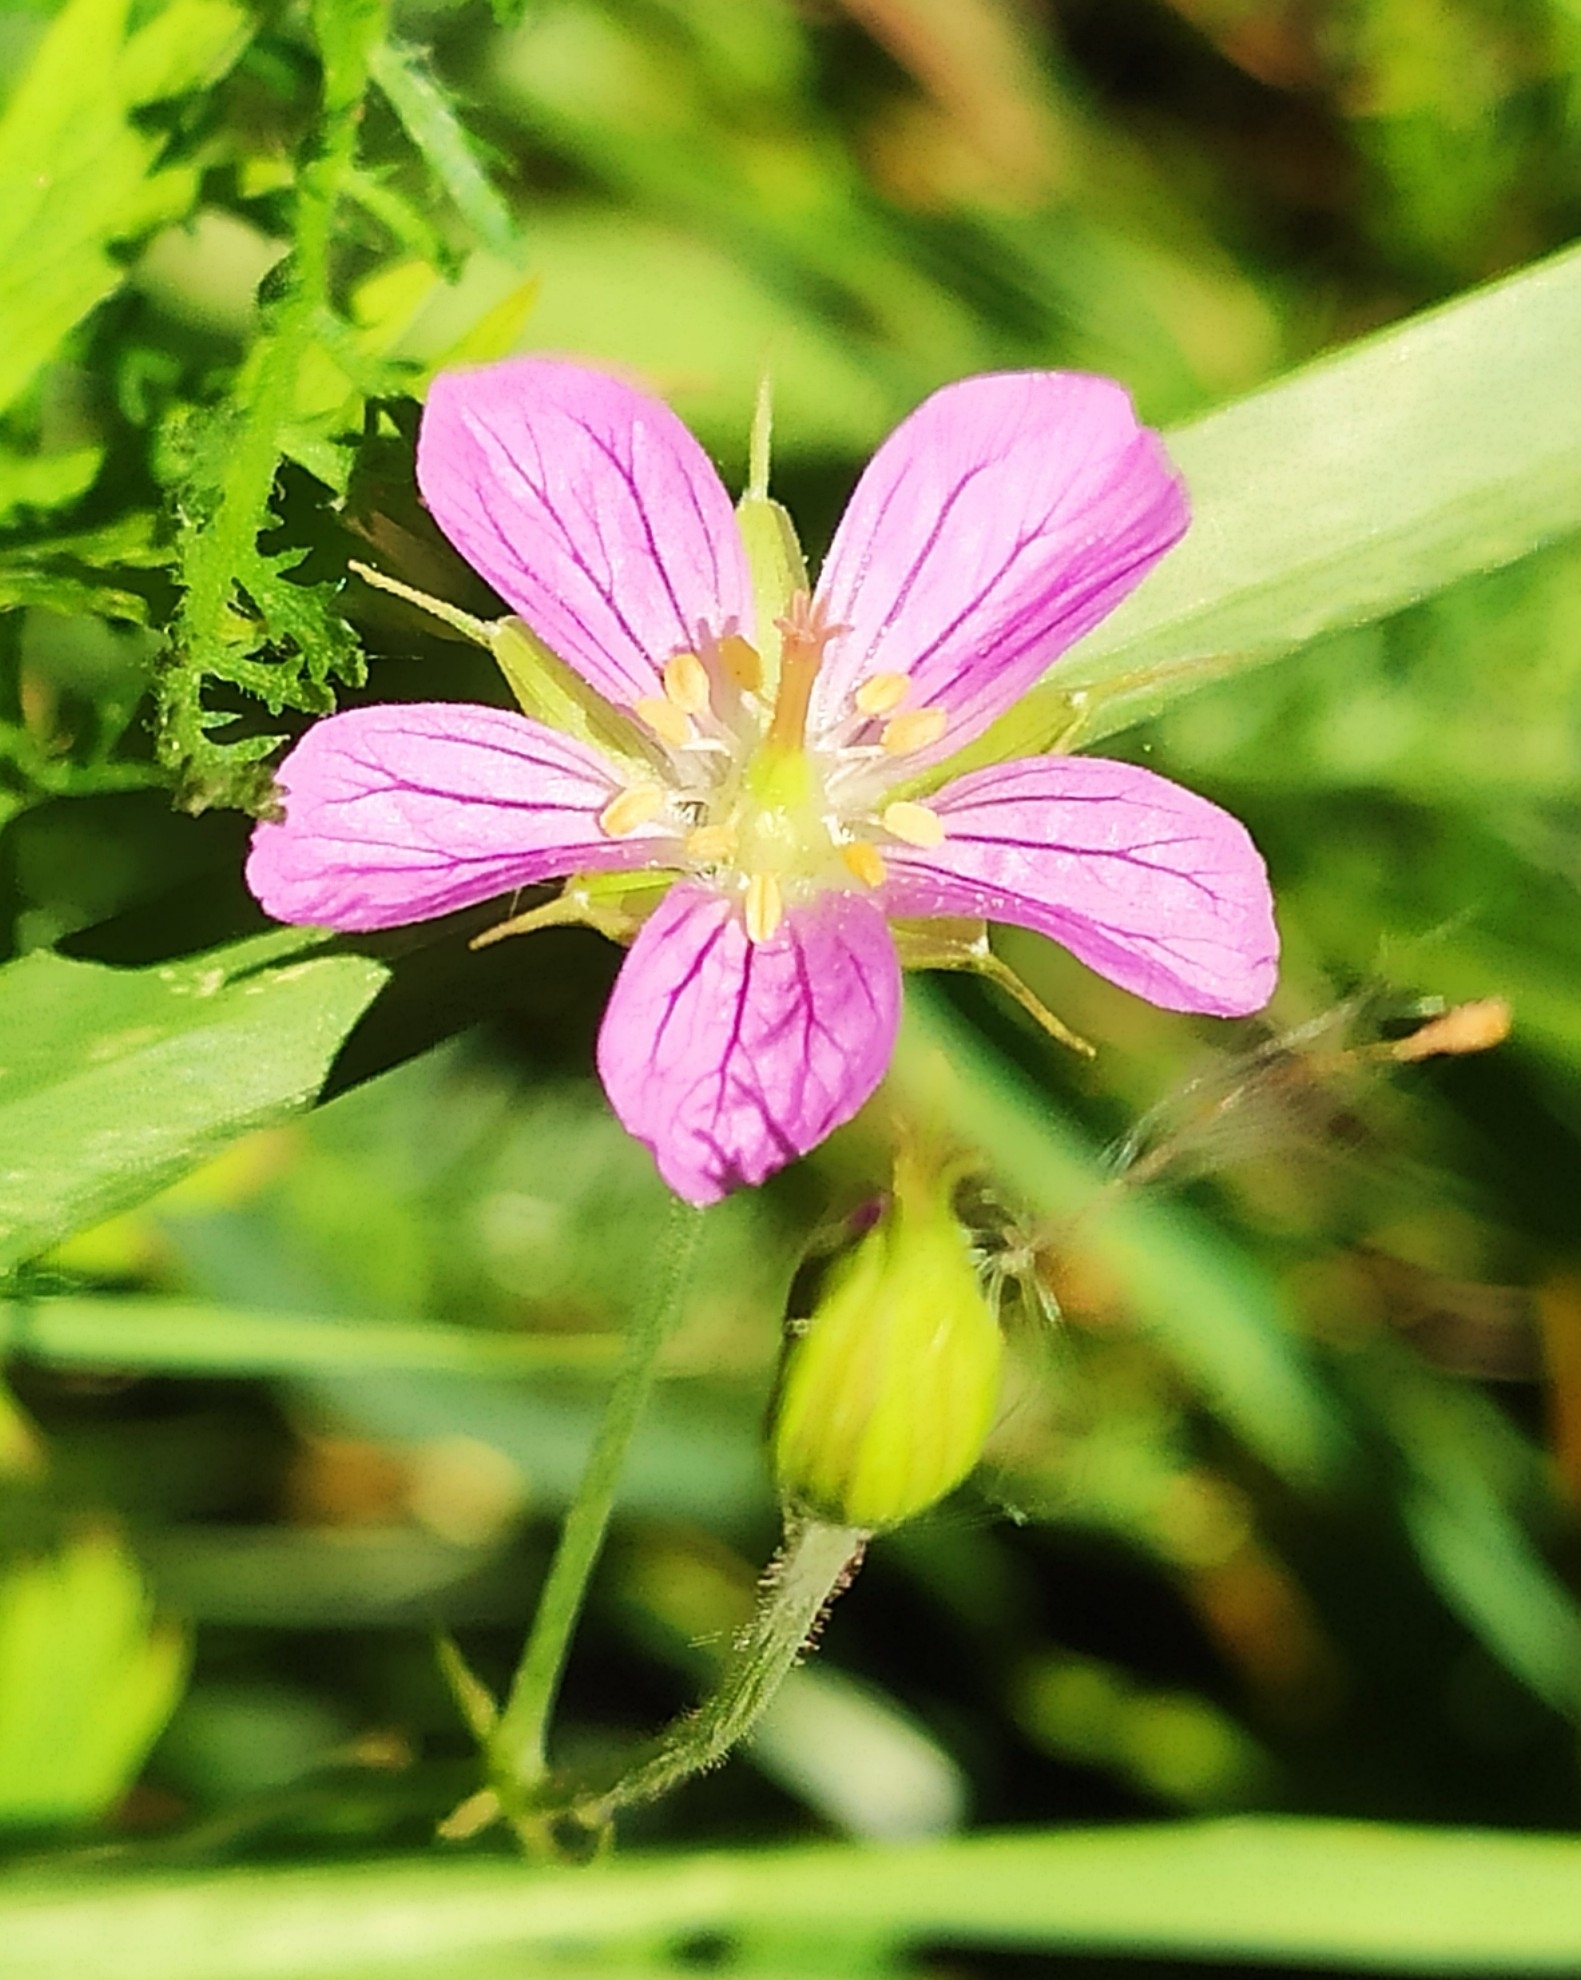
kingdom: Plantae
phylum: Tracheophyta
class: Magnoliopsida
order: Geraniales
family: Geraniaceae
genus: Geranium
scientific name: Geranium collinum
